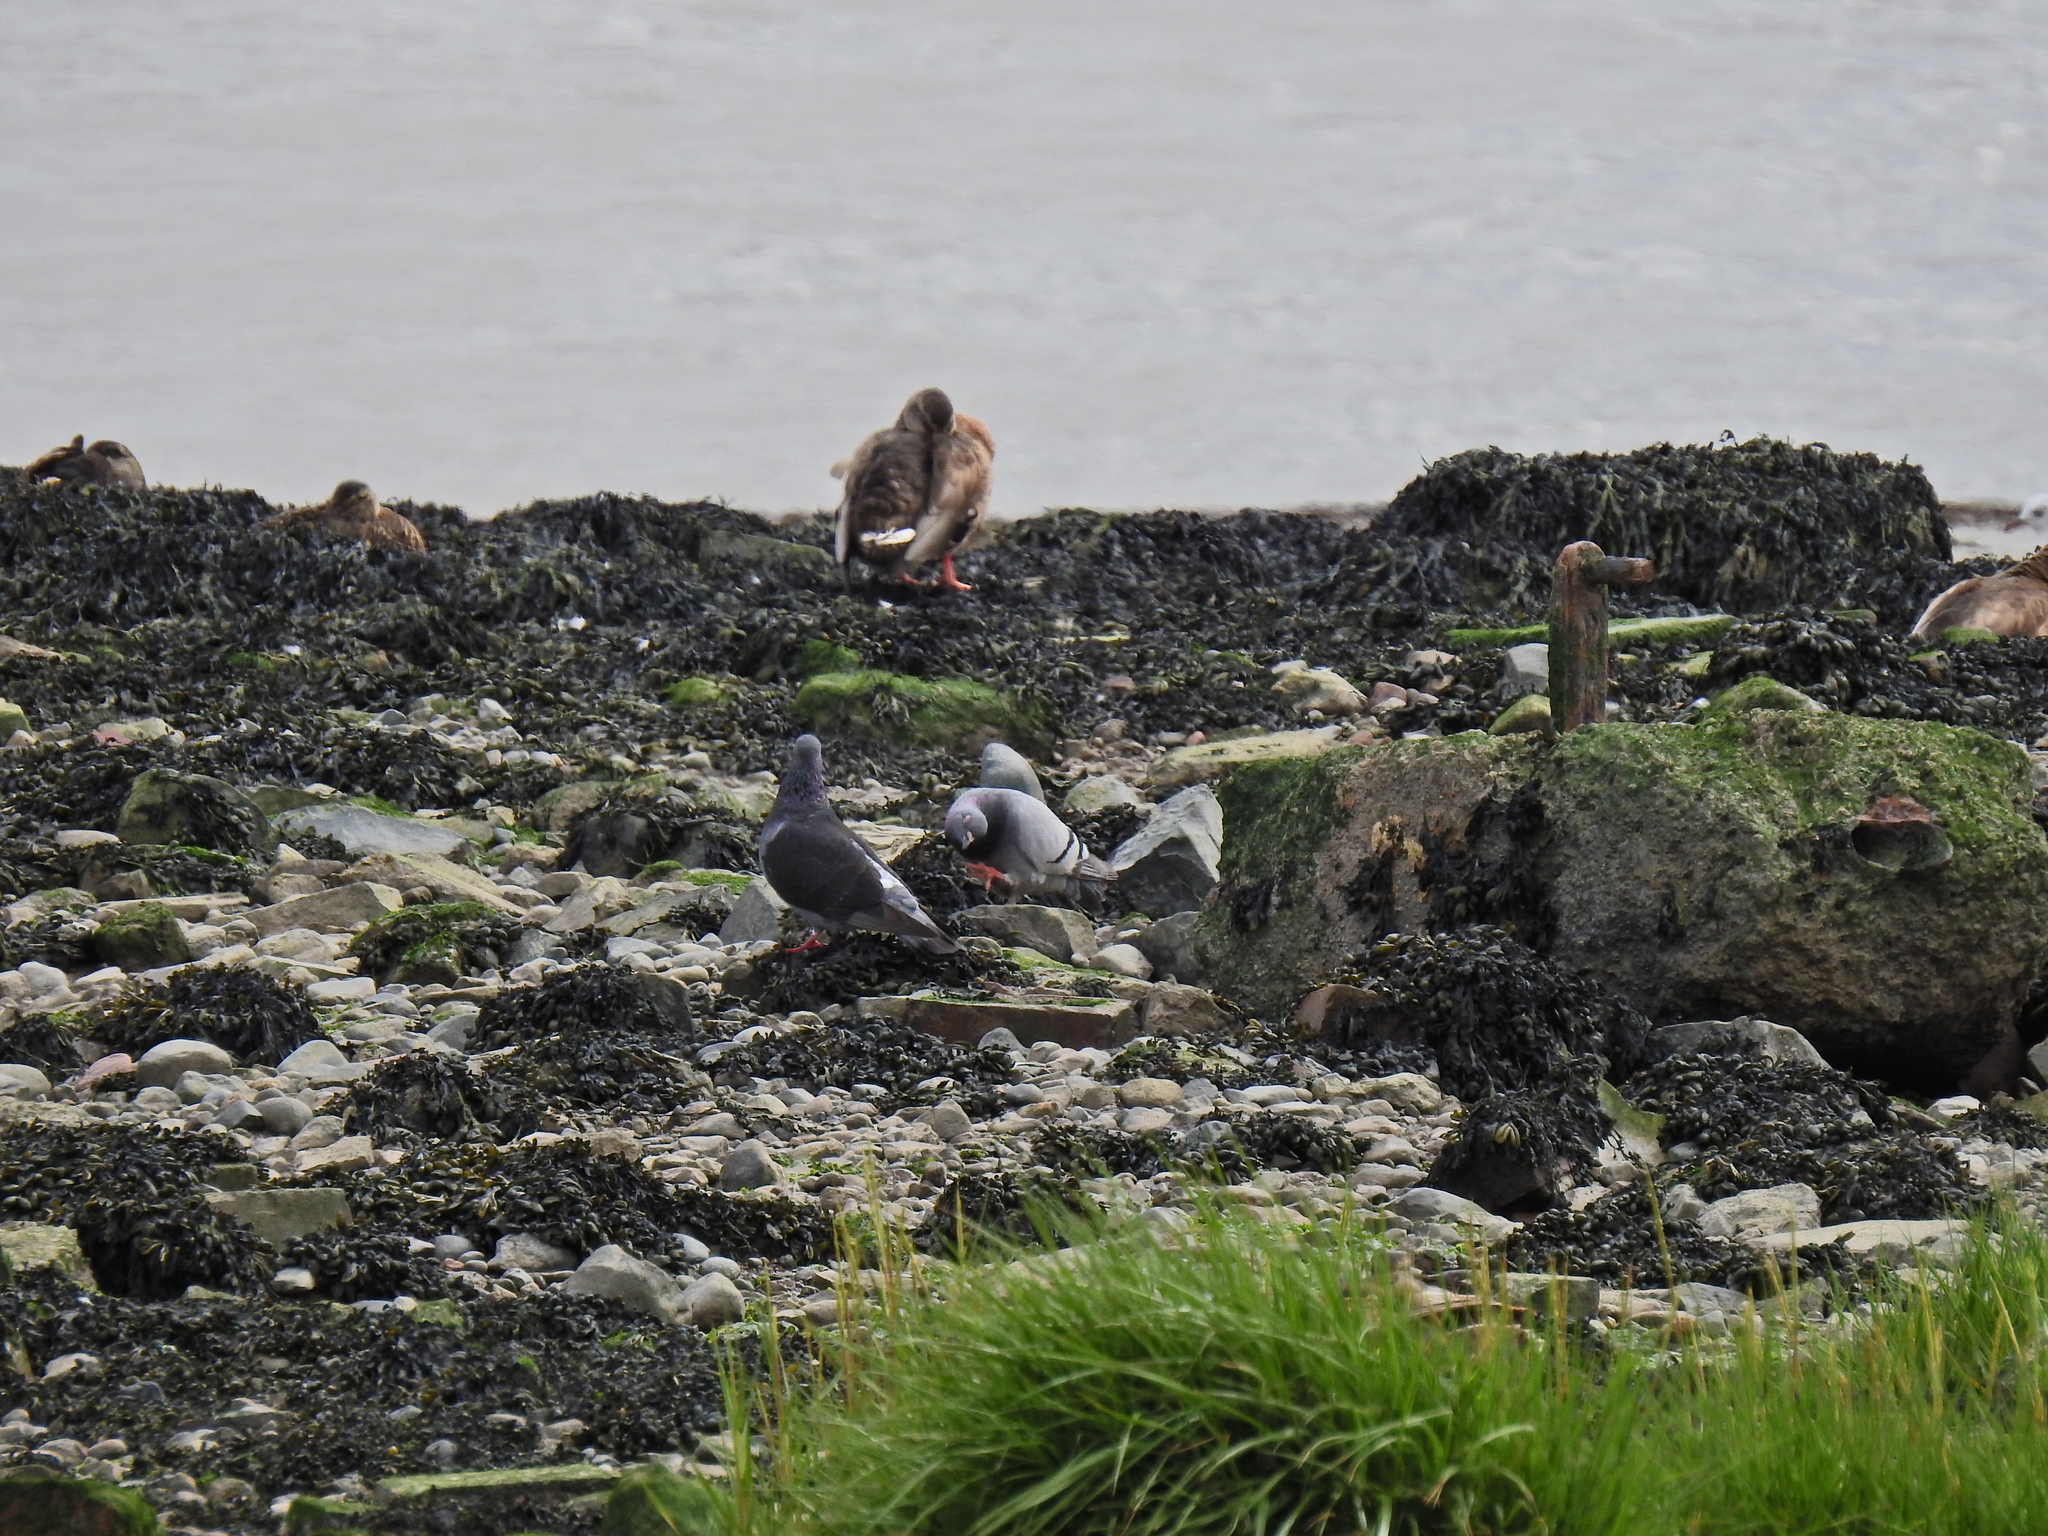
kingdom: Animalia
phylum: Chordata
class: Aves
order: Columbiformes
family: Columbidae
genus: Columba
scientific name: Columba livia
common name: Rock pigeon
